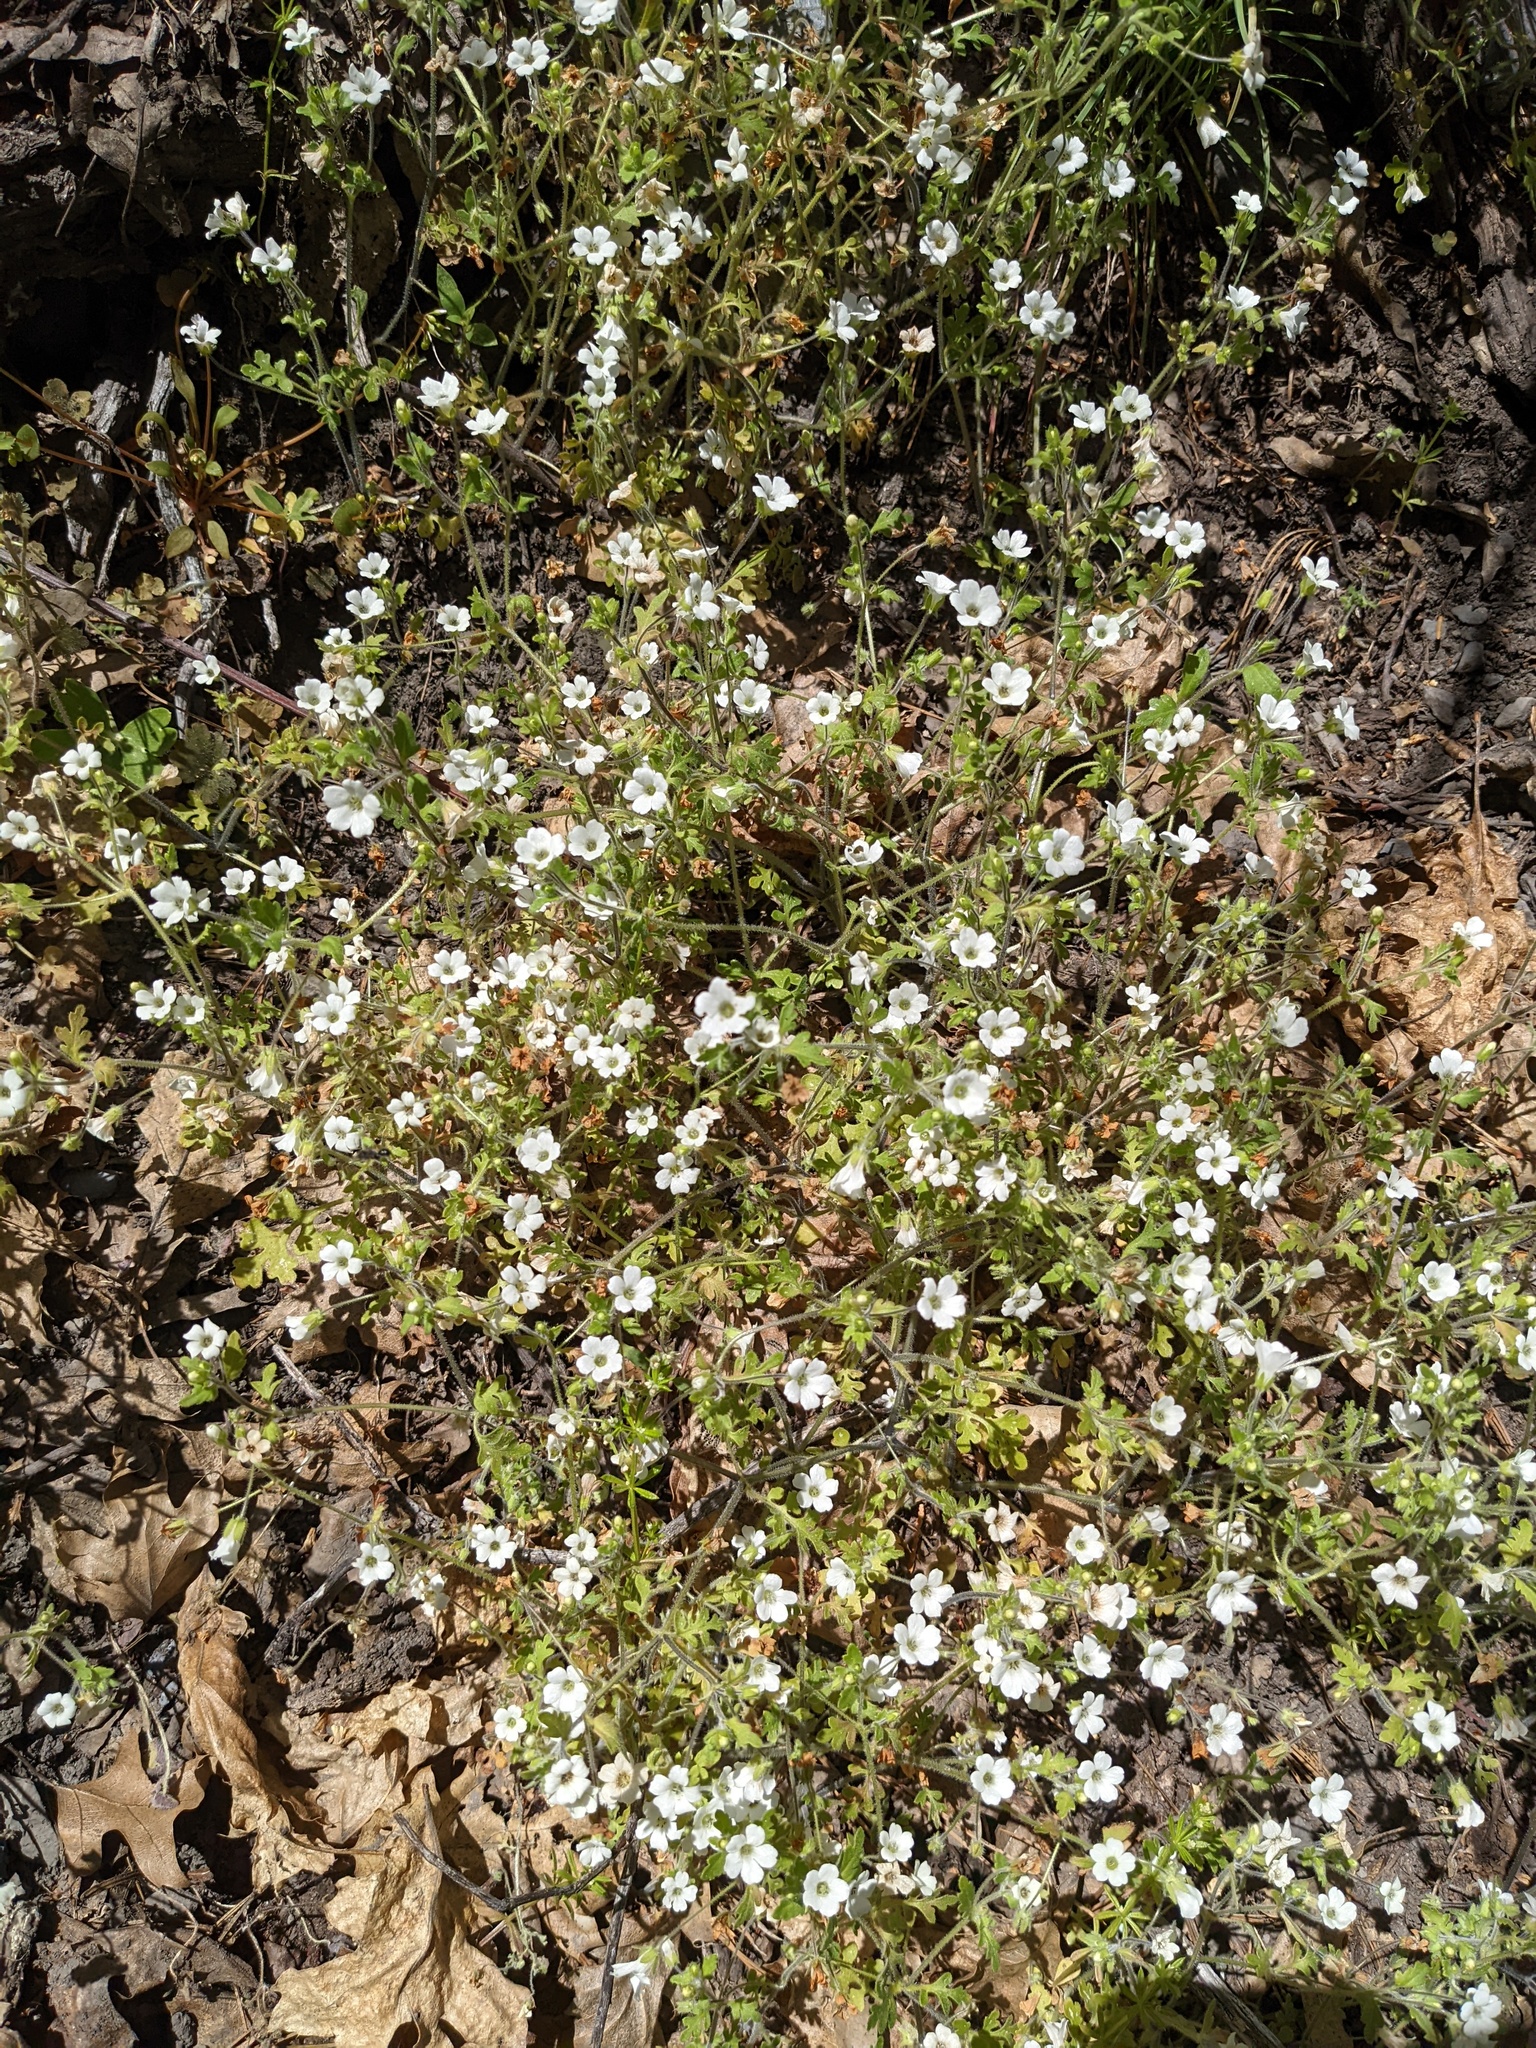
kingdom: Plantae
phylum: Tracheophyta
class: Magnoliopsida
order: Boraginales
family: Hydrophyllaceae
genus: Nemophila
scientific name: Nemophila heterophylla
